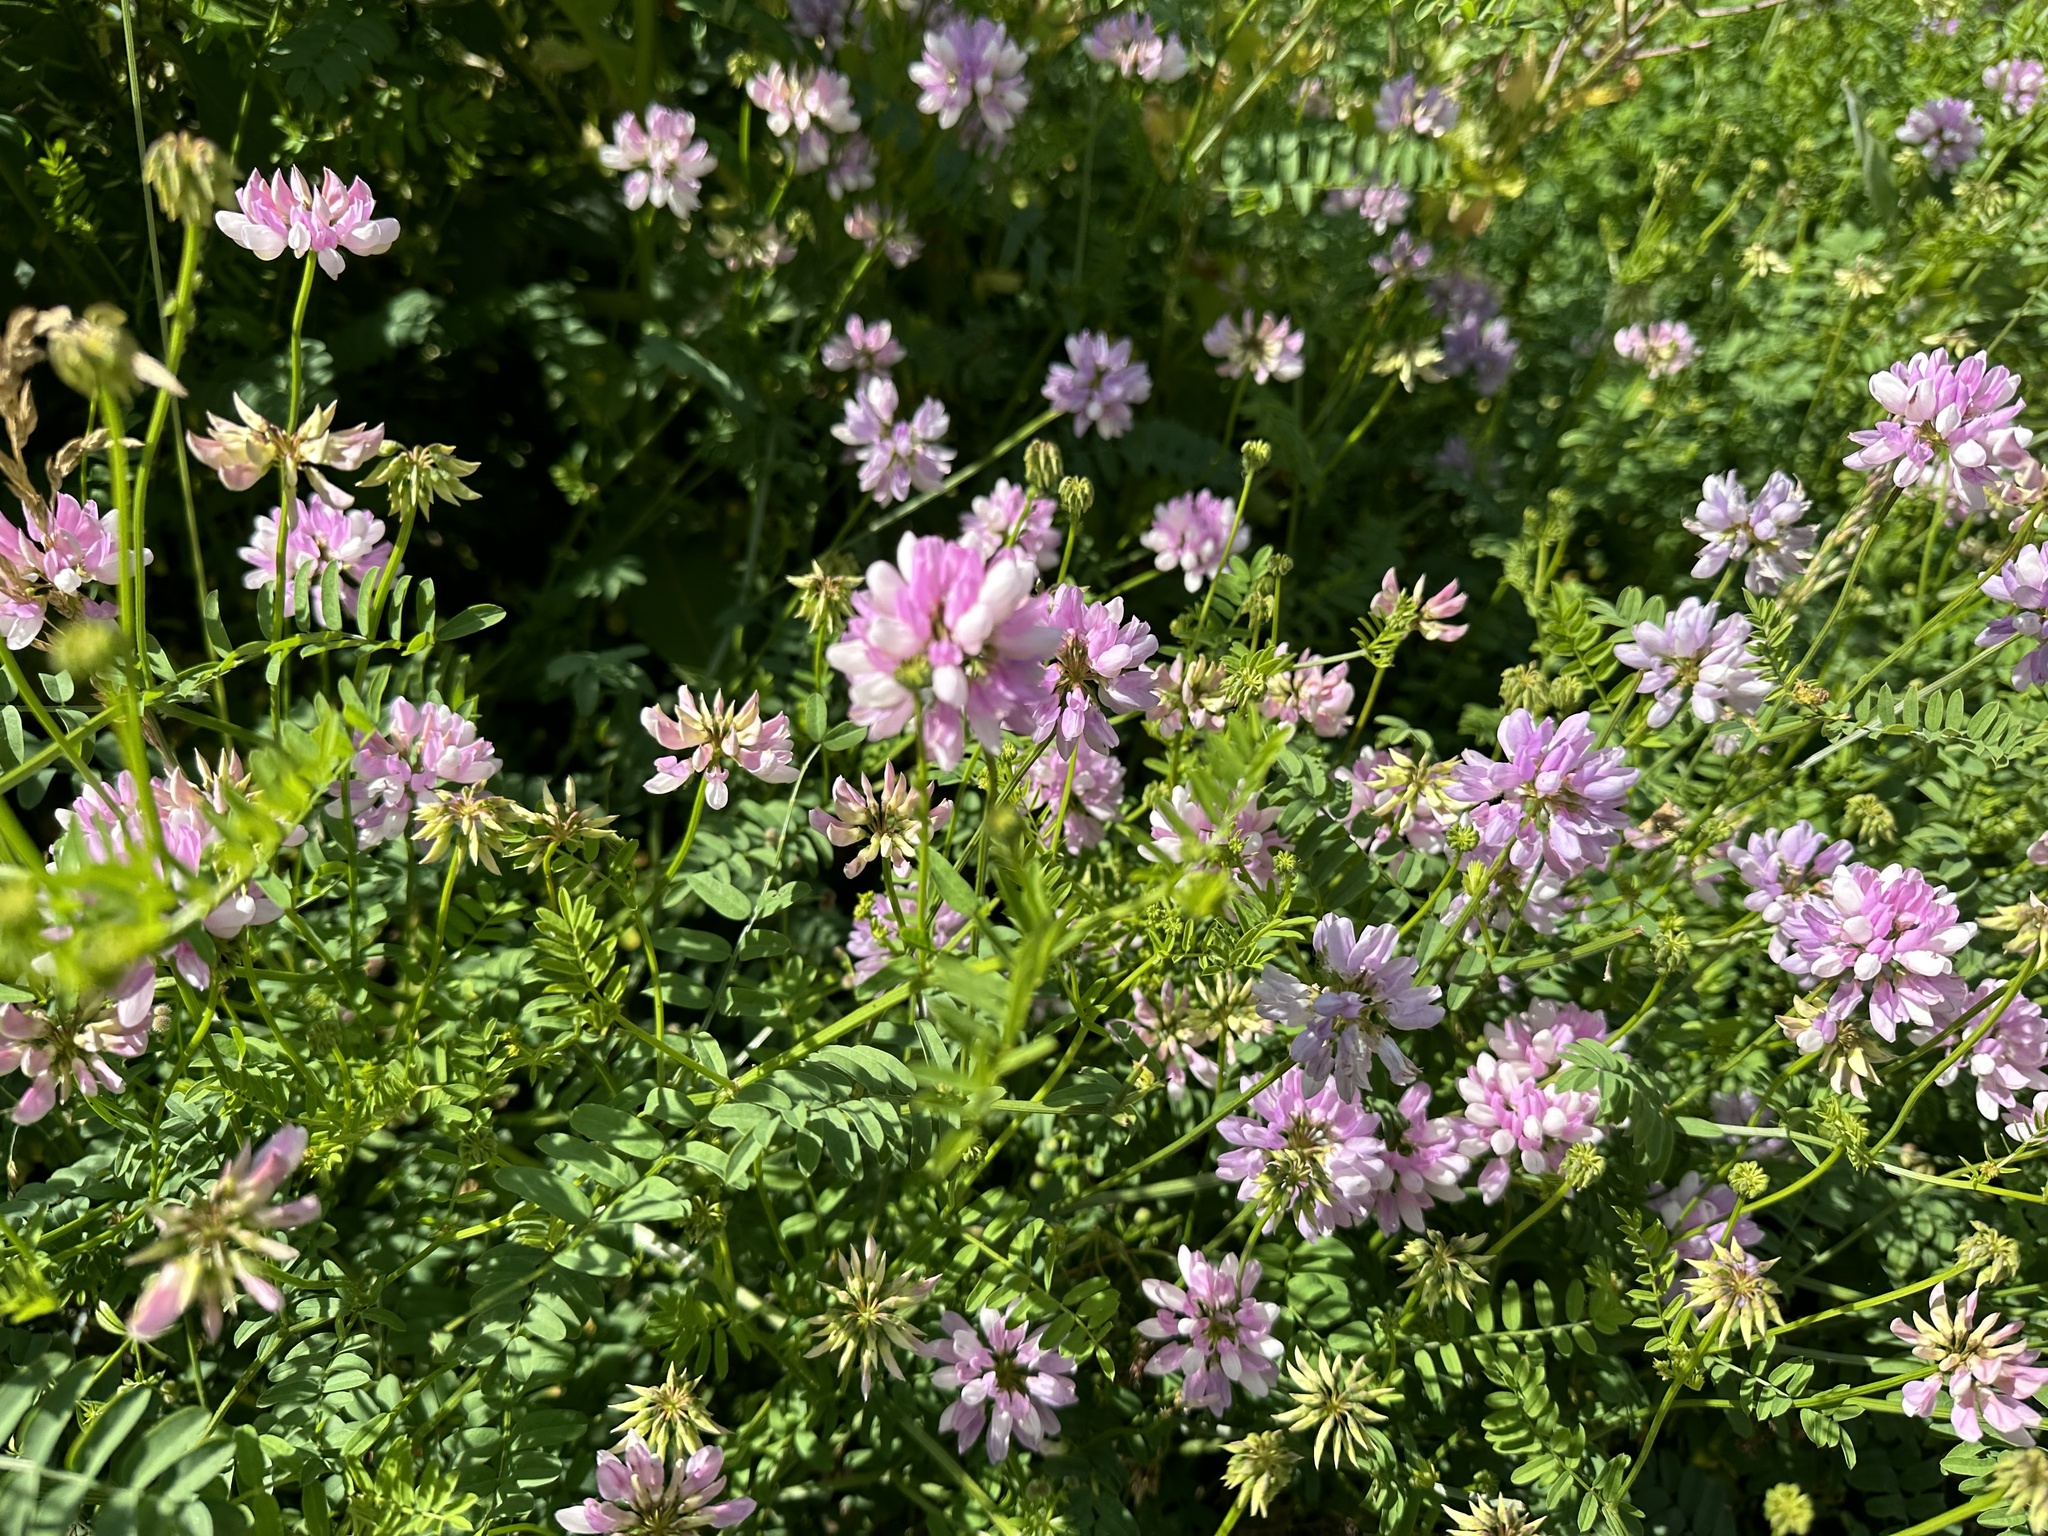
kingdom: Plantae
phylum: Tracheophyta
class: Magnoliopsida
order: Fabales
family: Fabaceae
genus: Coronilla
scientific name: Coronilla varia
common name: Crownvetch
